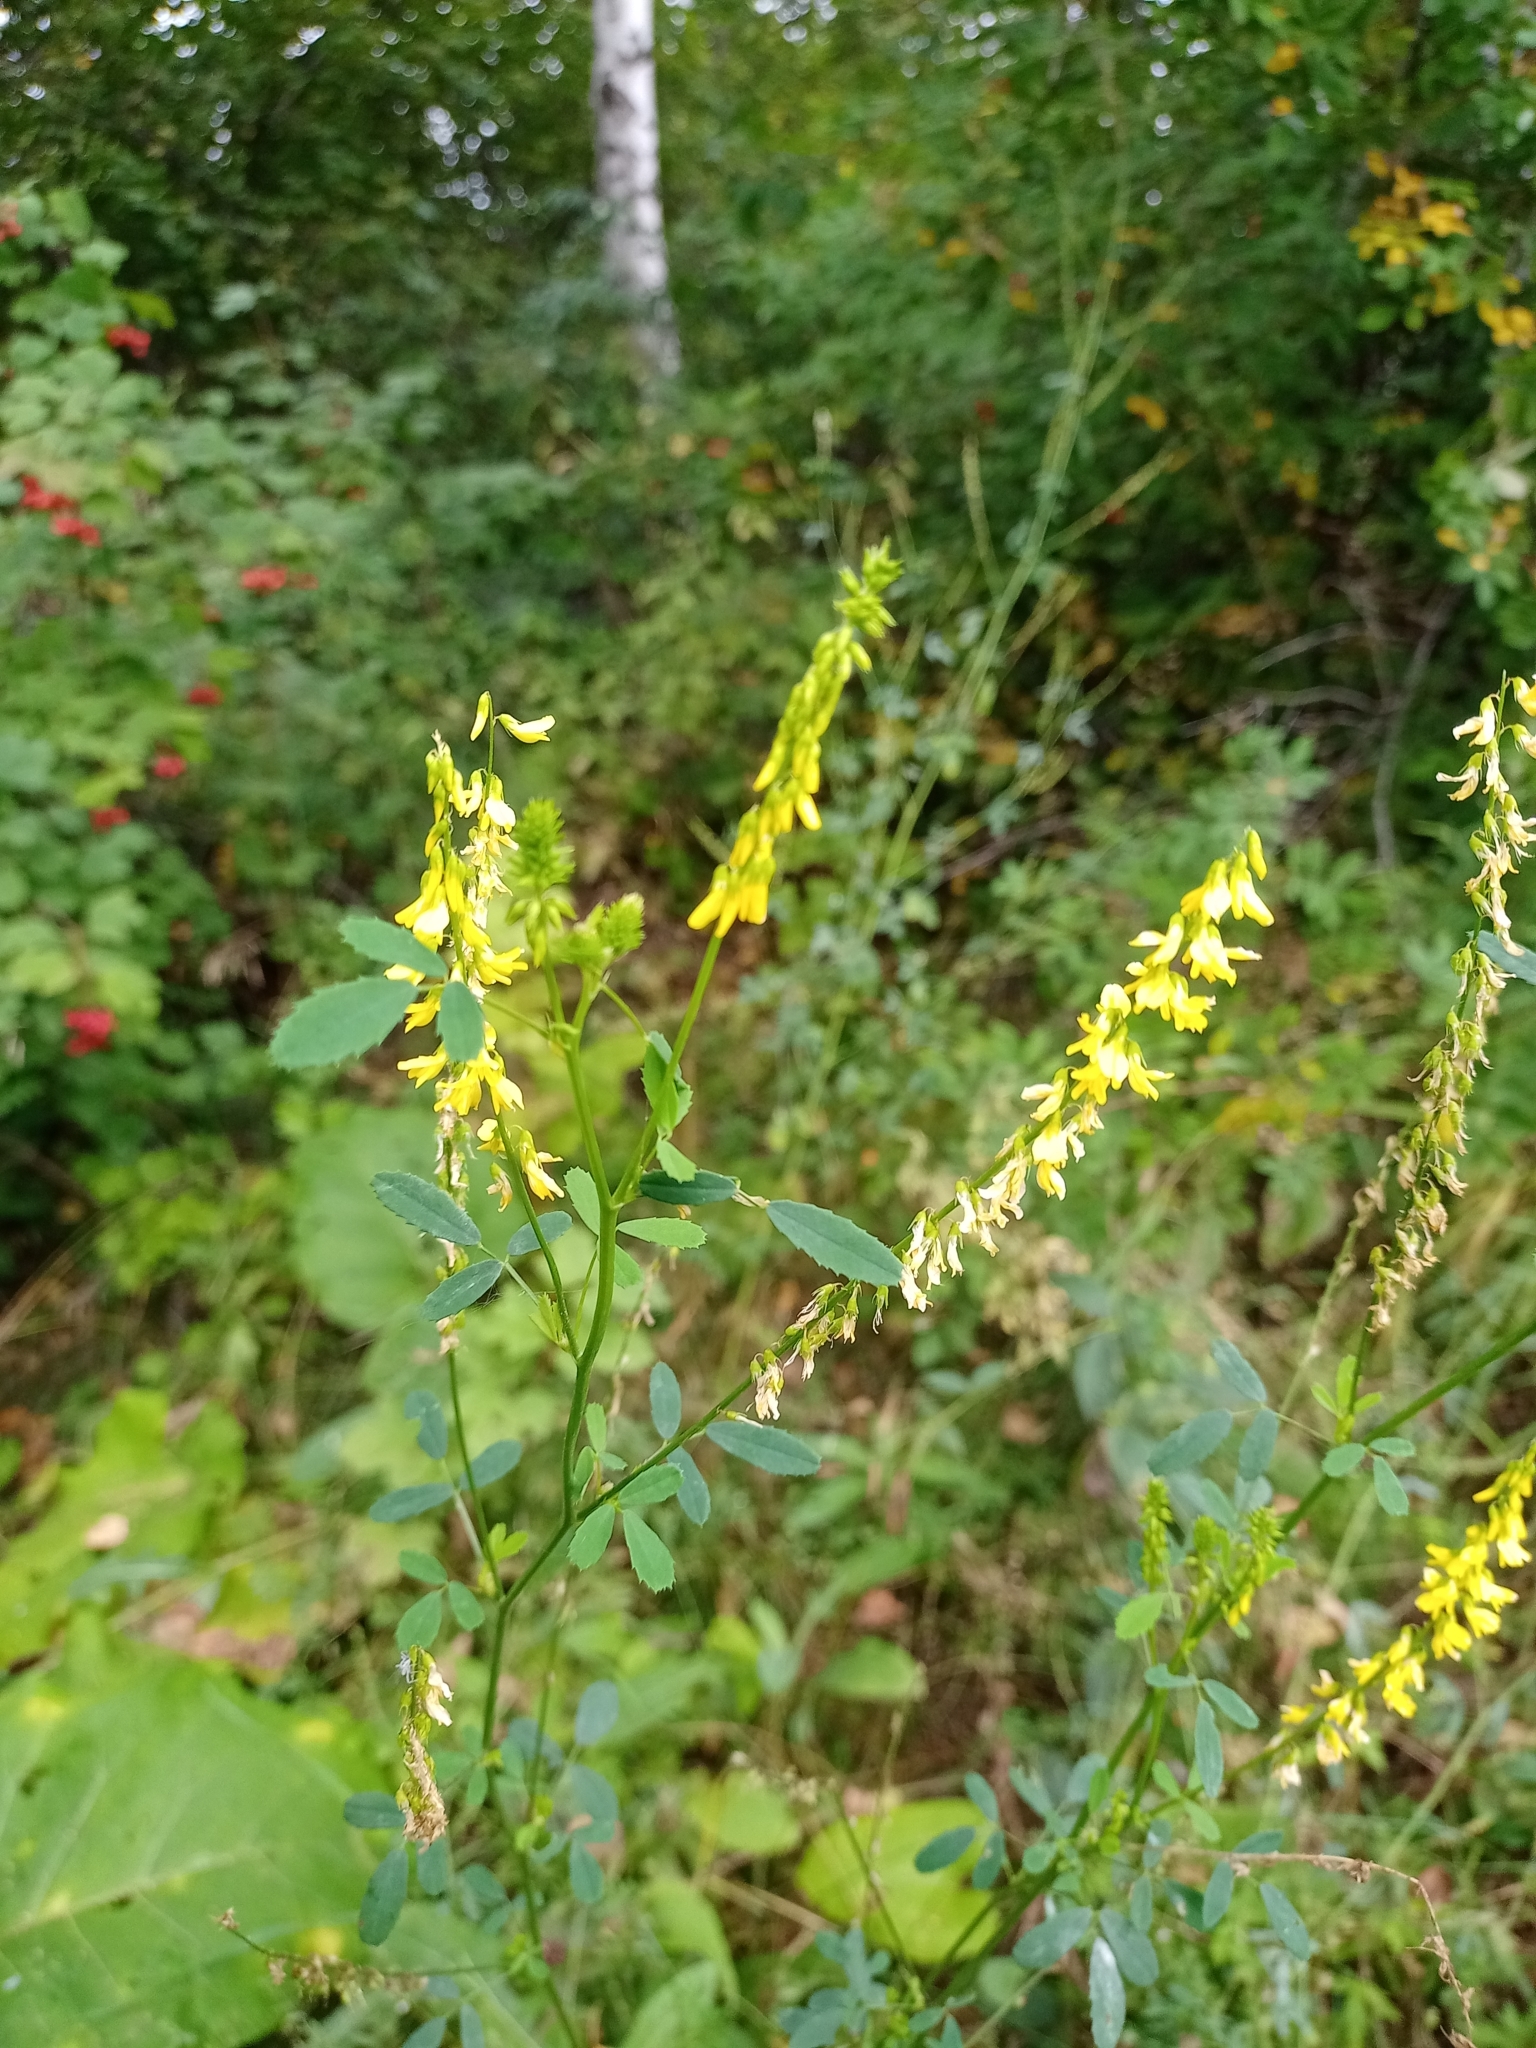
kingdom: Plantae
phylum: Tracheophyta
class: Magnoliopsida
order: Asterales
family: Asteraceae
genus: Arctium
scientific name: Arctium tomentosum
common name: Woolly burdock
